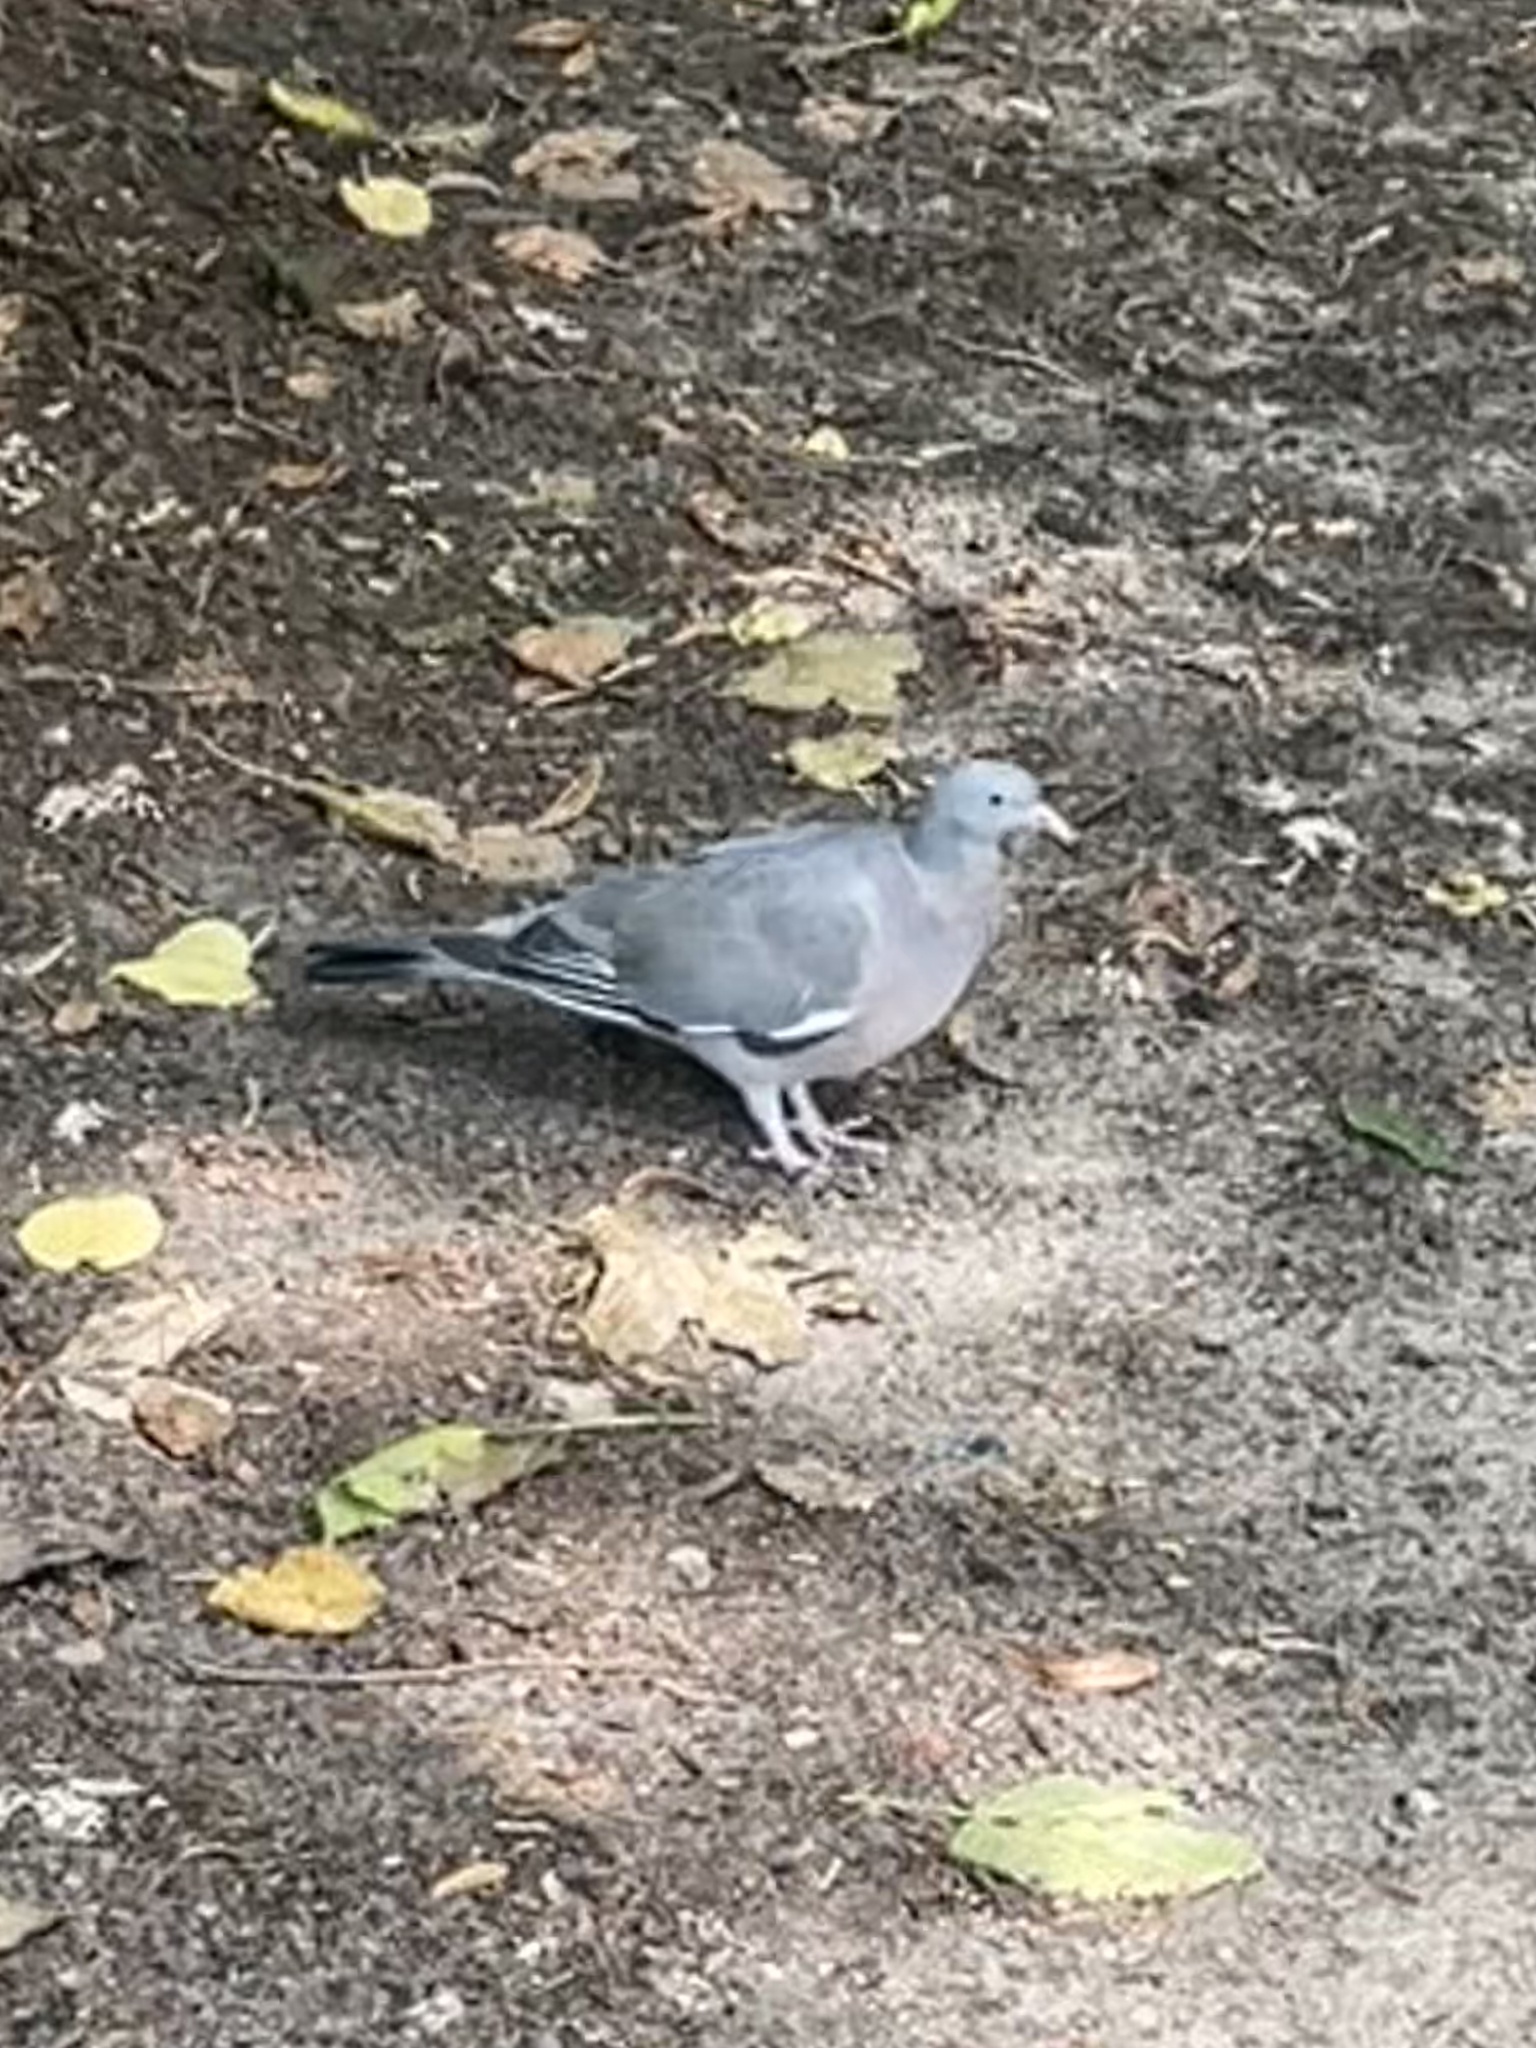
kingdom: Animalia
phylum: Chordata
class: Aves
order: Columbiformes
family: Columbidae
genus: Columba
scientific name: Columba palumbus
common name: Common wood pigeon
